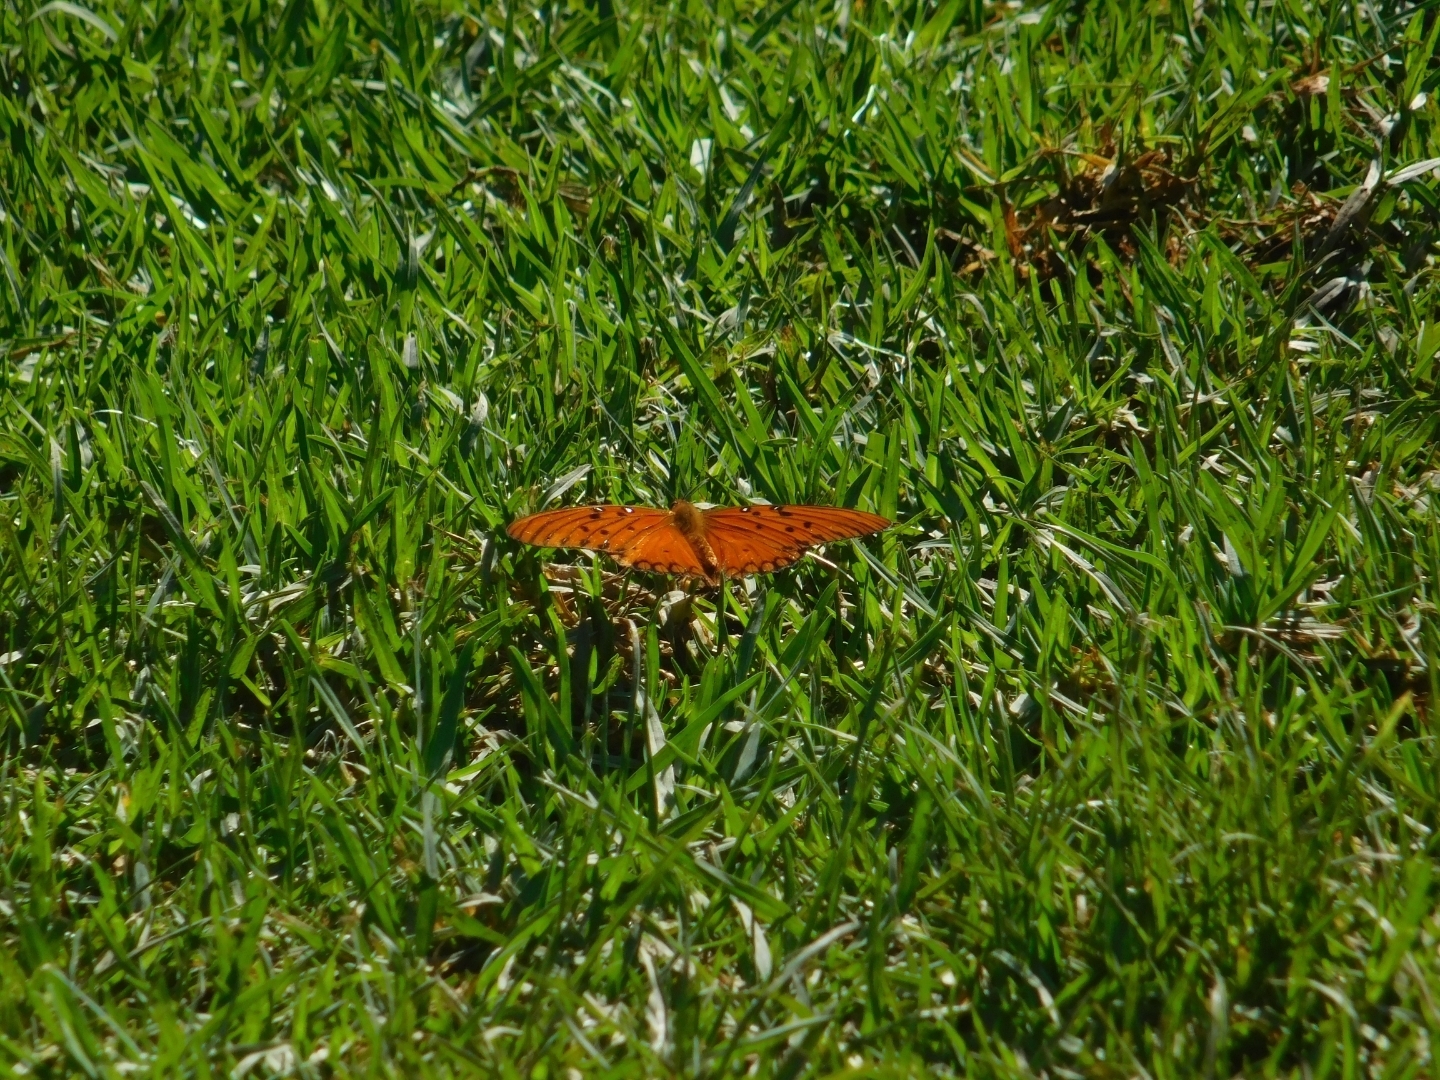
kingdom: Animalia
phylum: Arthropoda
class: Insecta
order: Lepidoptera
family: Nymphalidae
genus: Dione
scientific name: Dione vanillae
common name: Gulf fritillary
